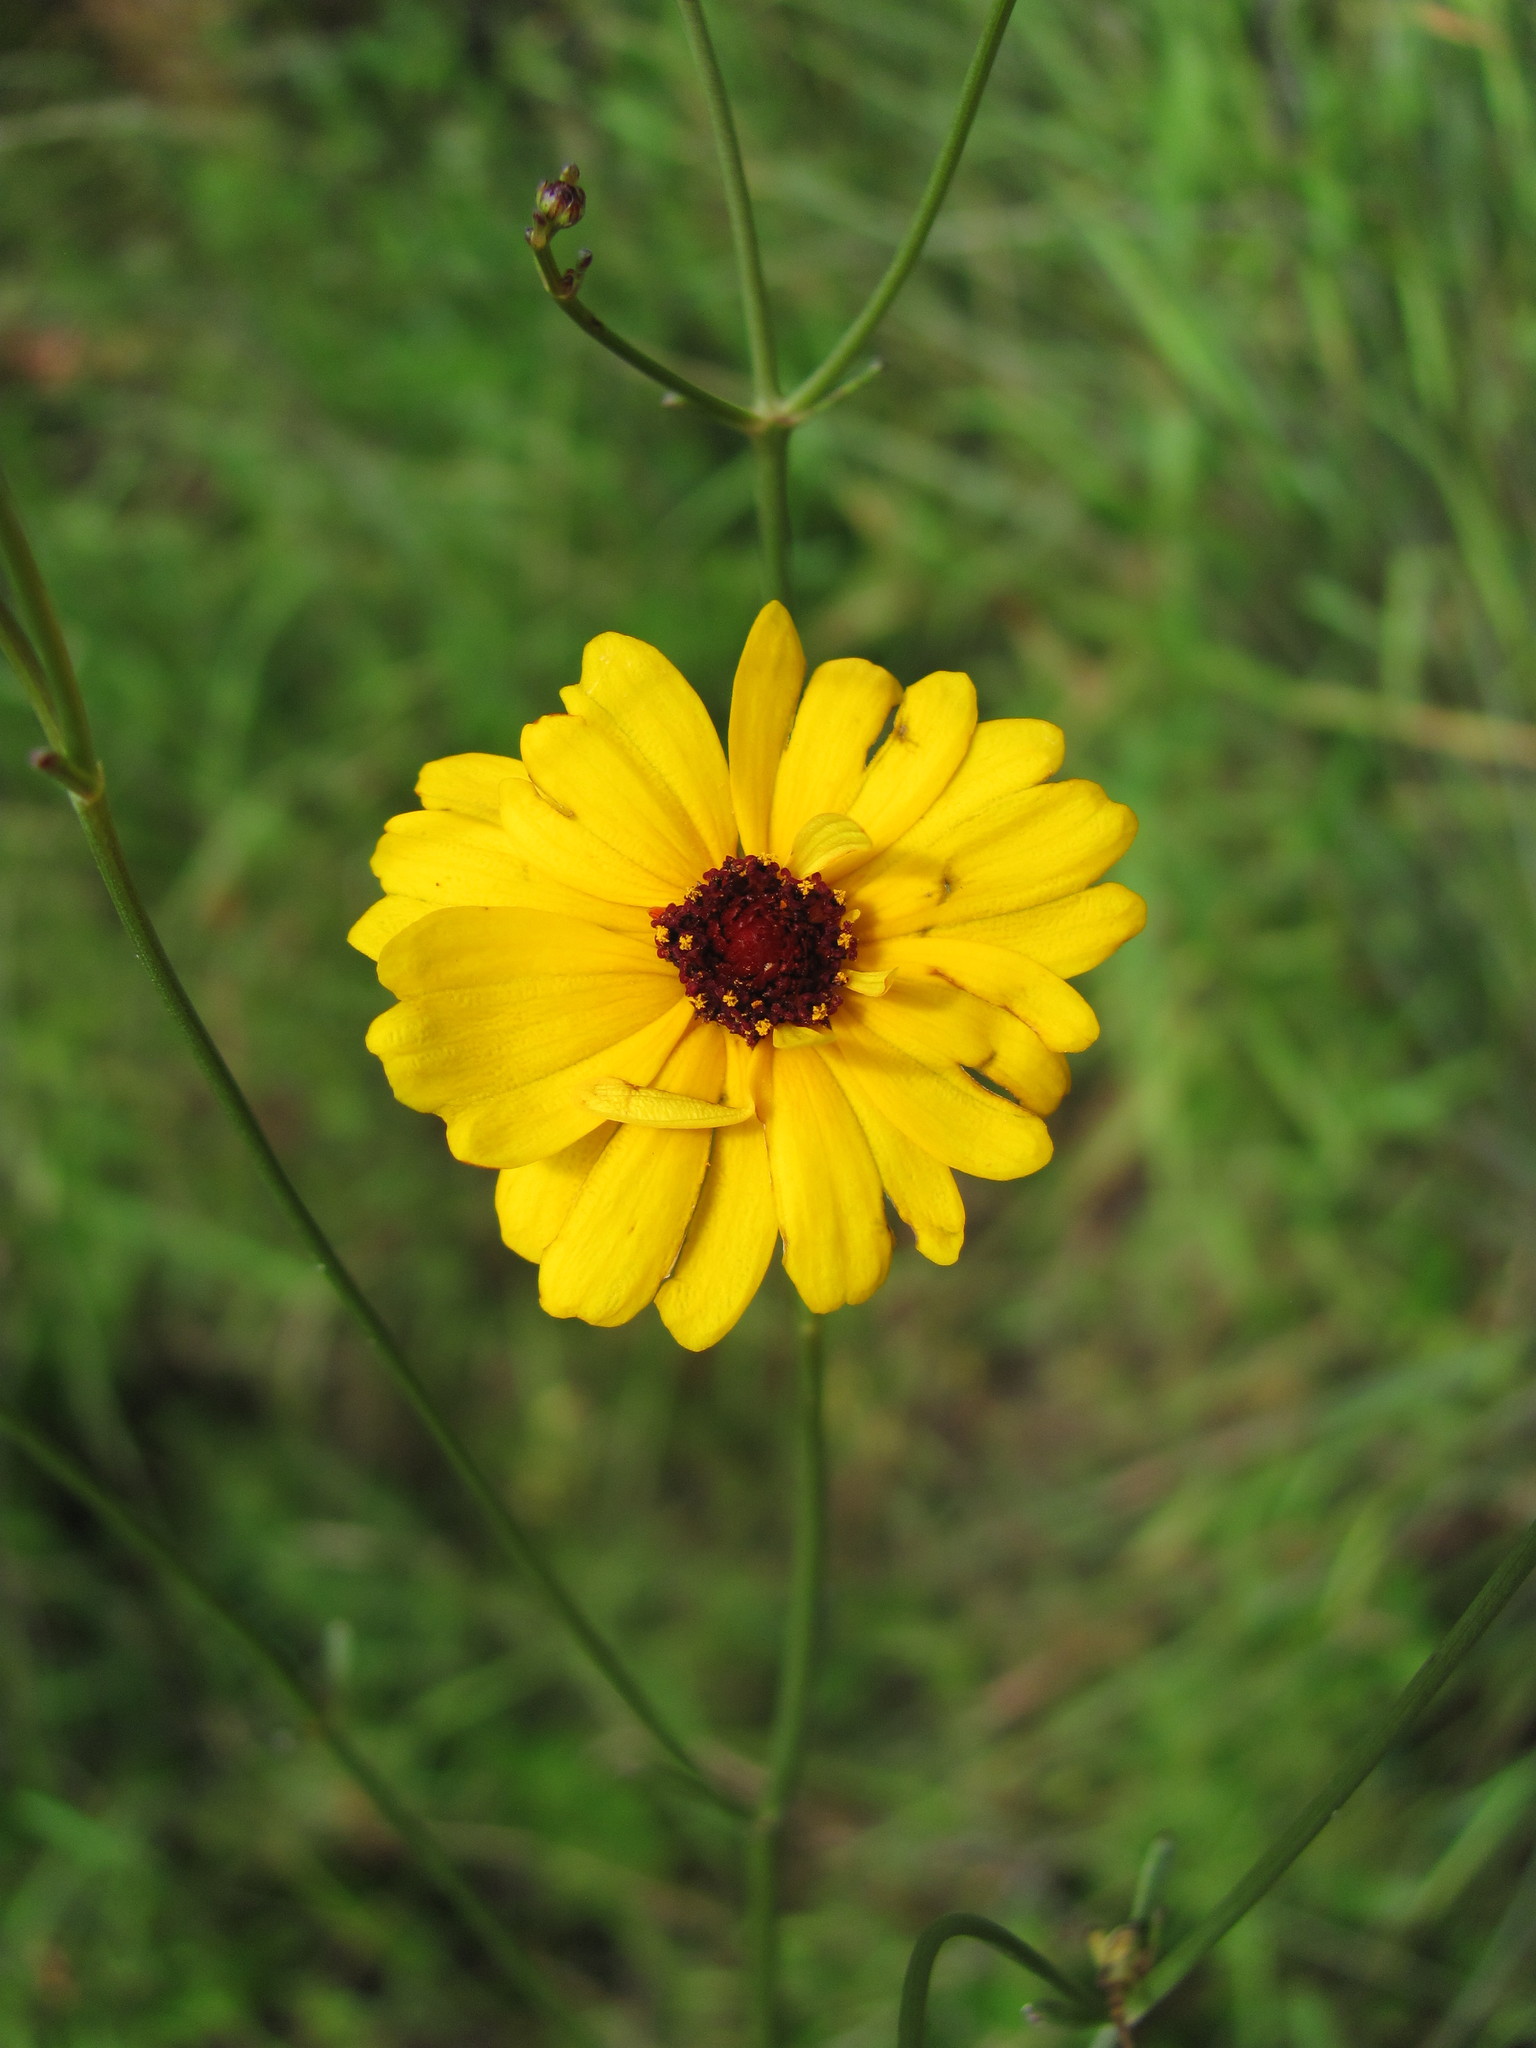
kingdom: Plantae
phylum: Tracheophyta
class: Magnoliopsida
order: Asterales
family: Asteraceae
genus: Coreopsis
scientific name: Coreopsis gladiata
